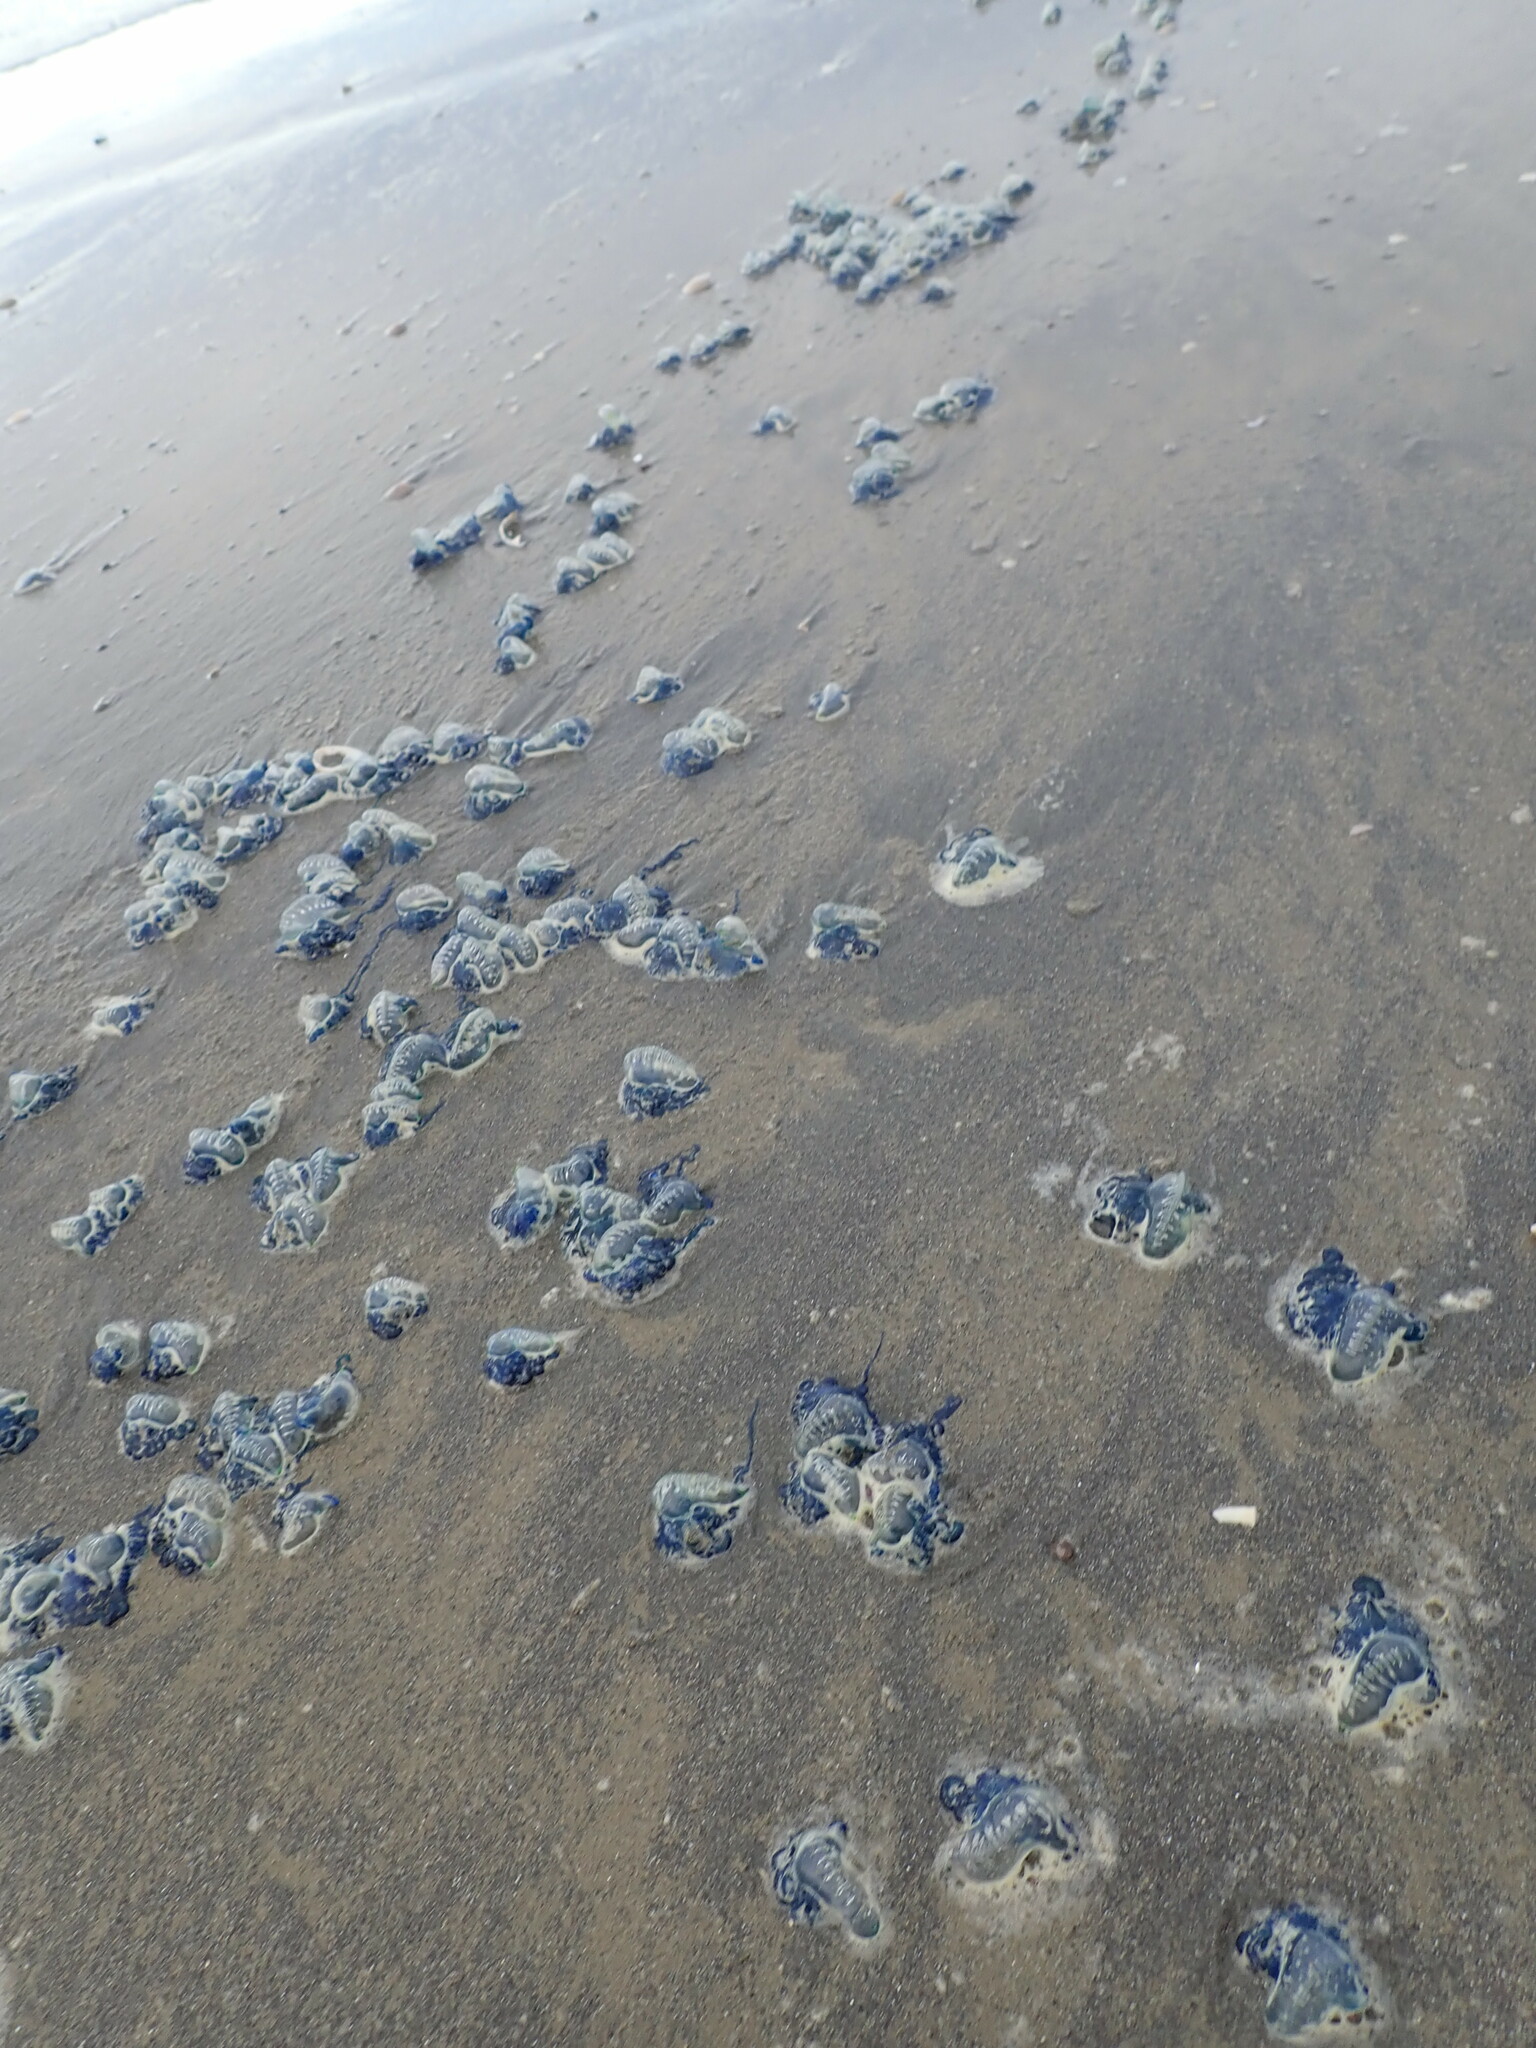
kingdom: Animalia
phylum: Cnidaria
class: Hydrozoa
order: Siphonophorae
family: Physaliidae
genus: Physalia
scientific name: Physalia physalis
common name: Portuguese man-of-war
